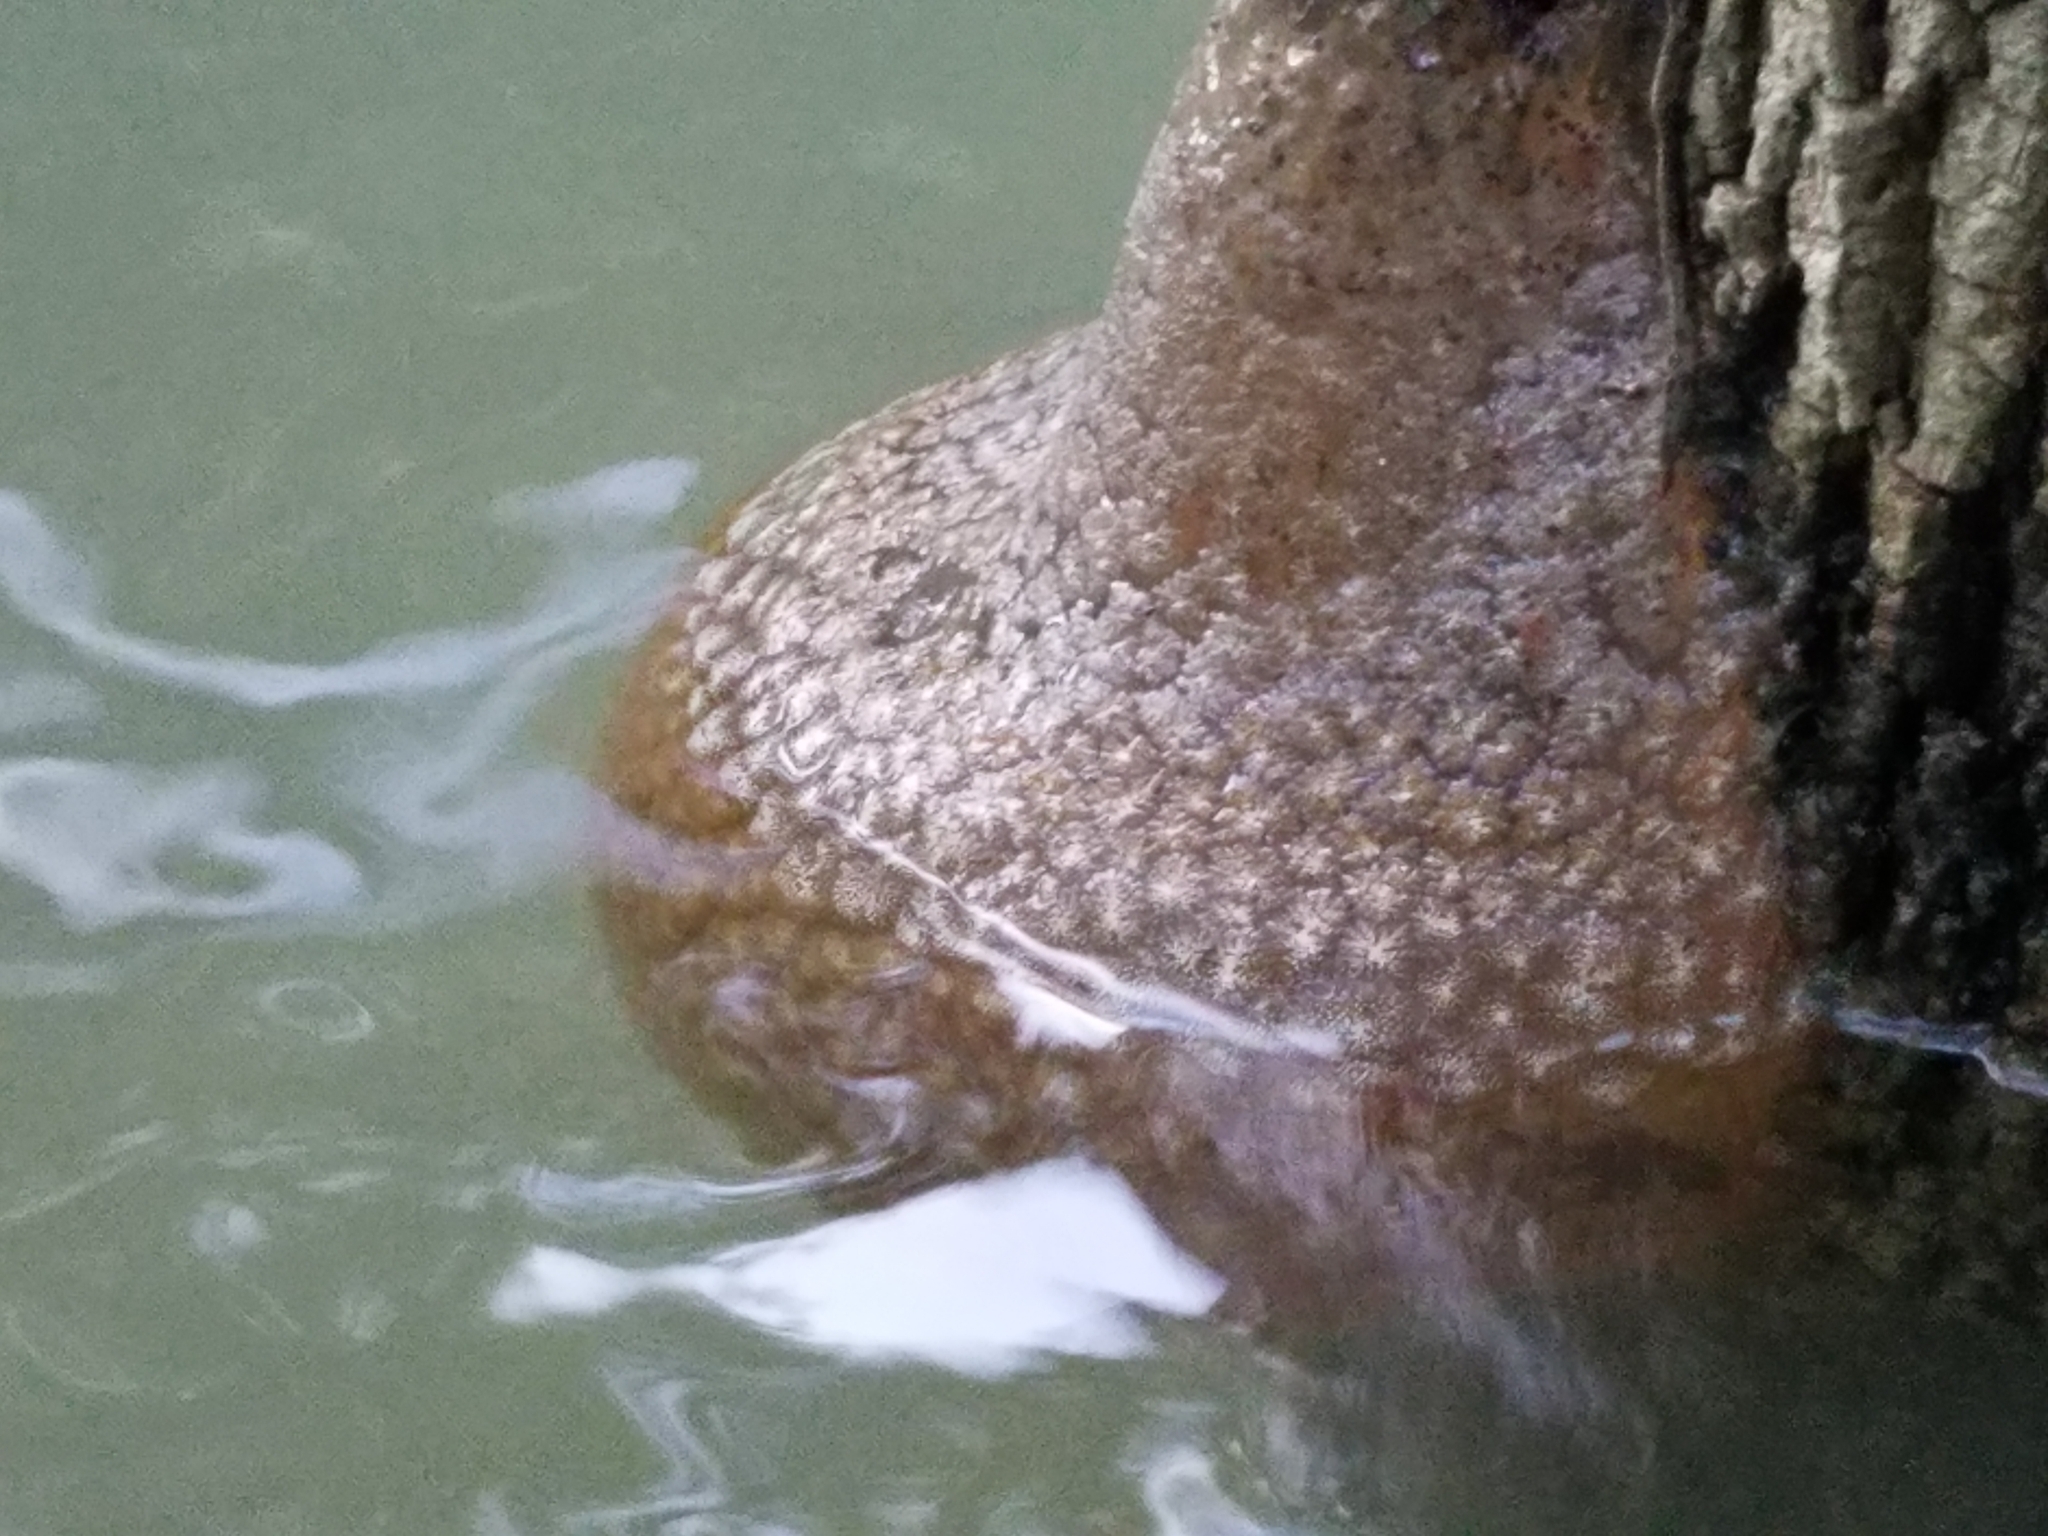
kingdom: Animalia
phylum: Bryozoa
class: Phylactolaemata
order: Plumatellida
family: Pectinatellidae
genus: Pectinatella
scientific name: Pectinatella magnifica
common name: Magnificent bryozoan
